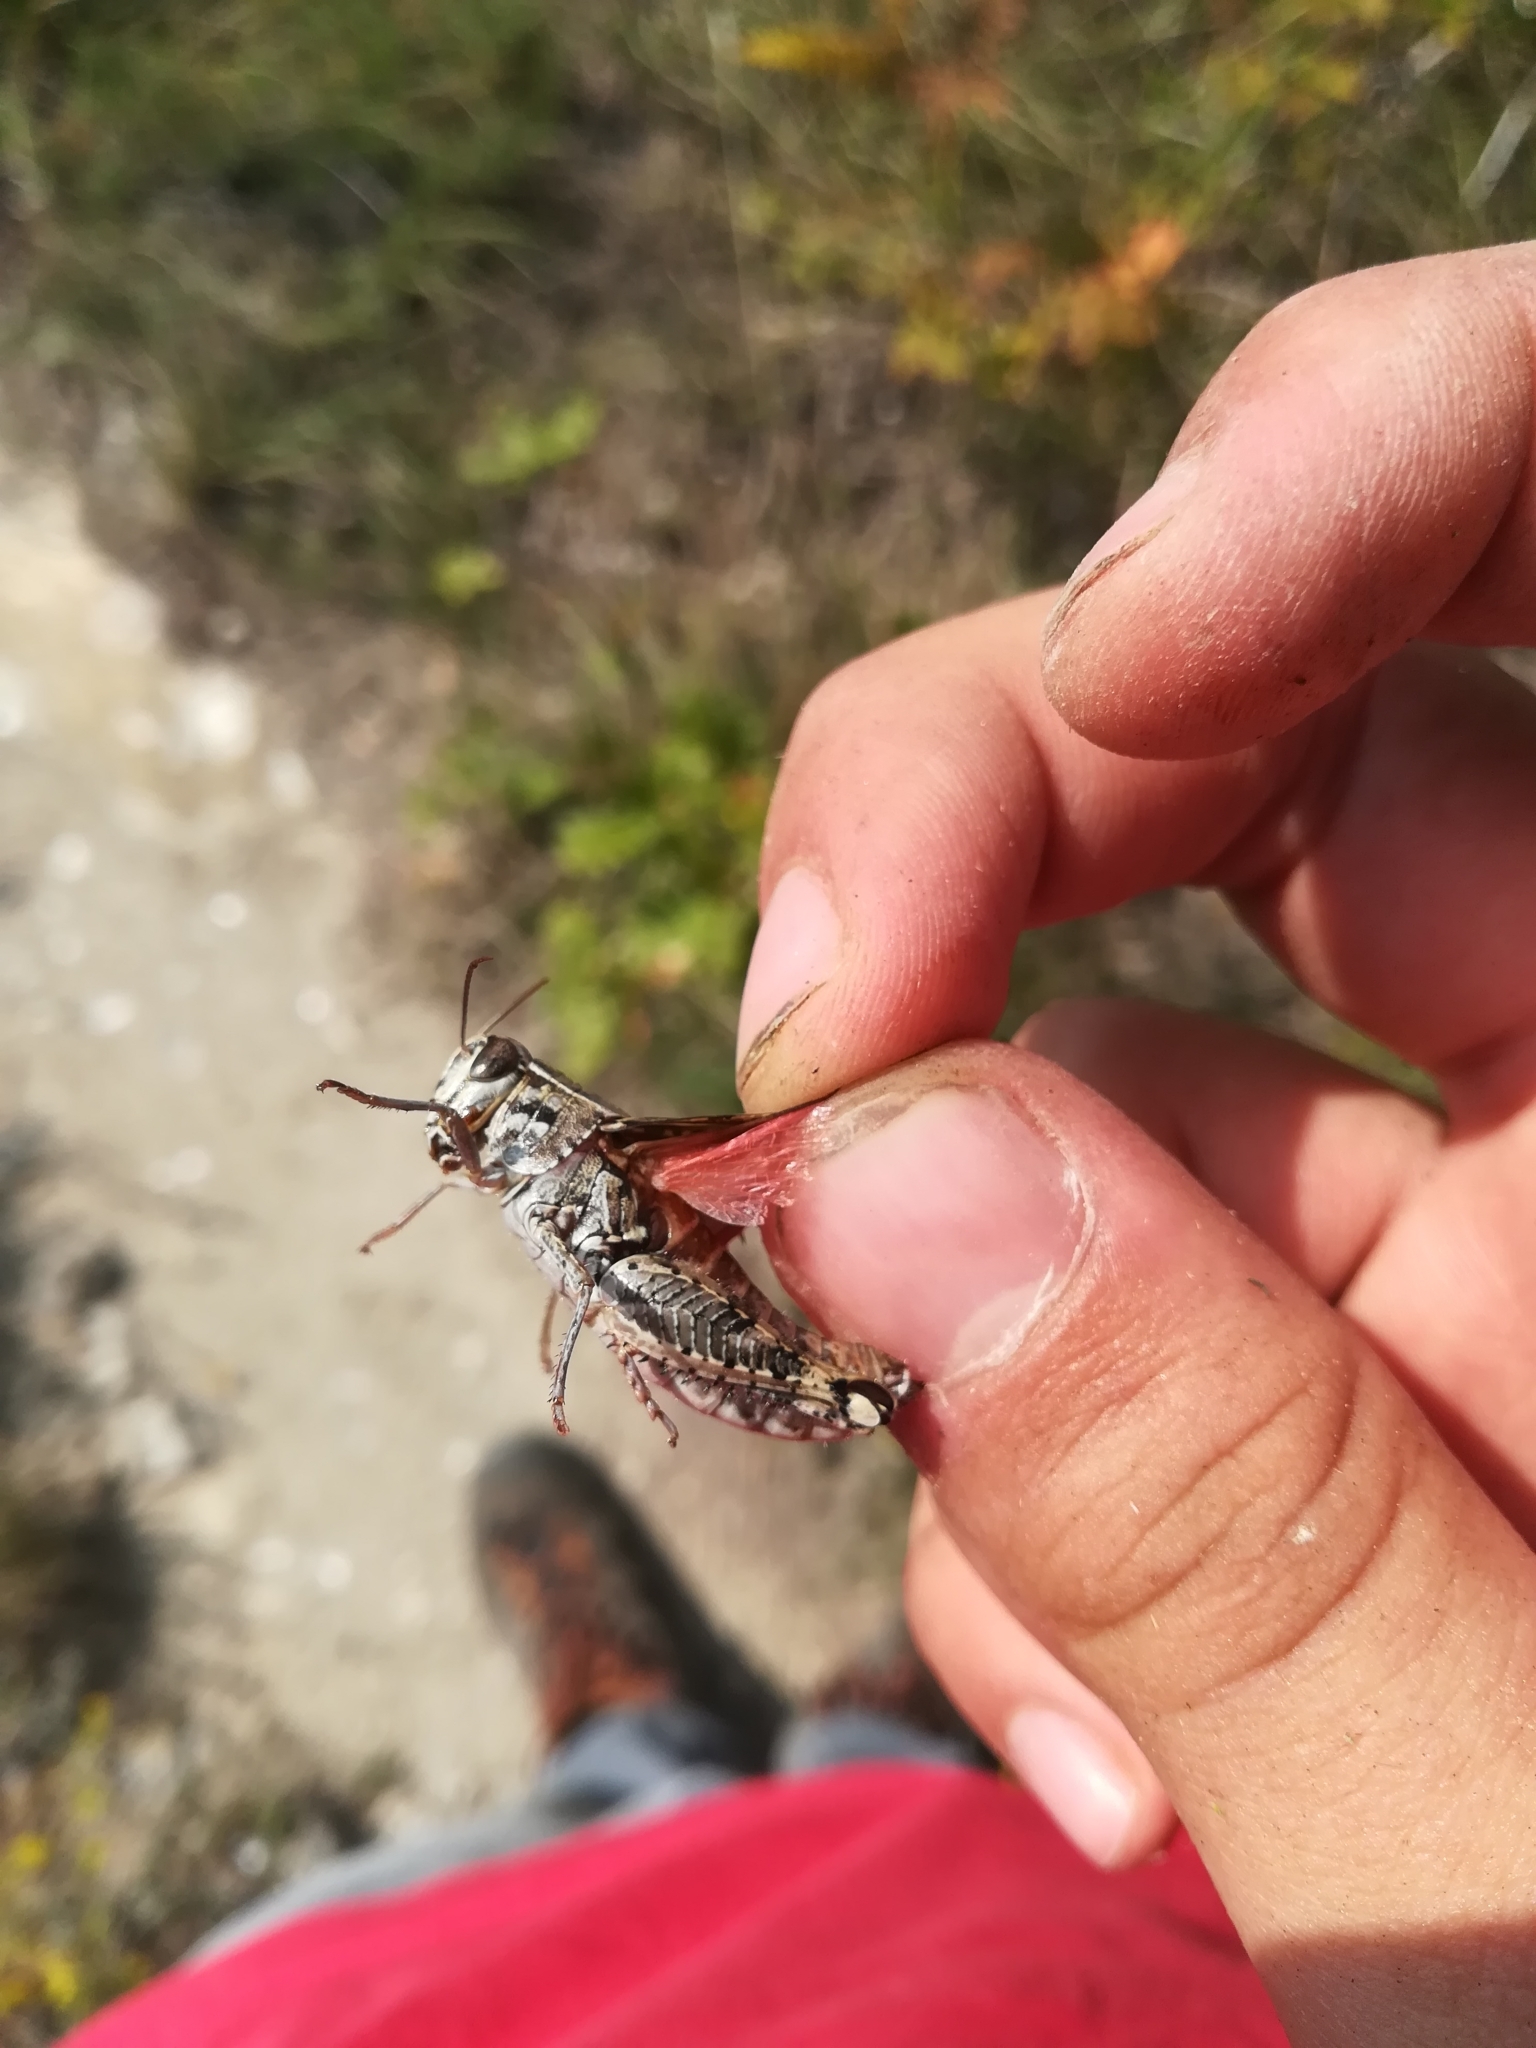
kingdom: Animalia
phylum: Arthropoda
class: Insecta
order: Orthoptera
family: Acrididae
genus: Calliptamus
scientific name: Calliptamus italicus
